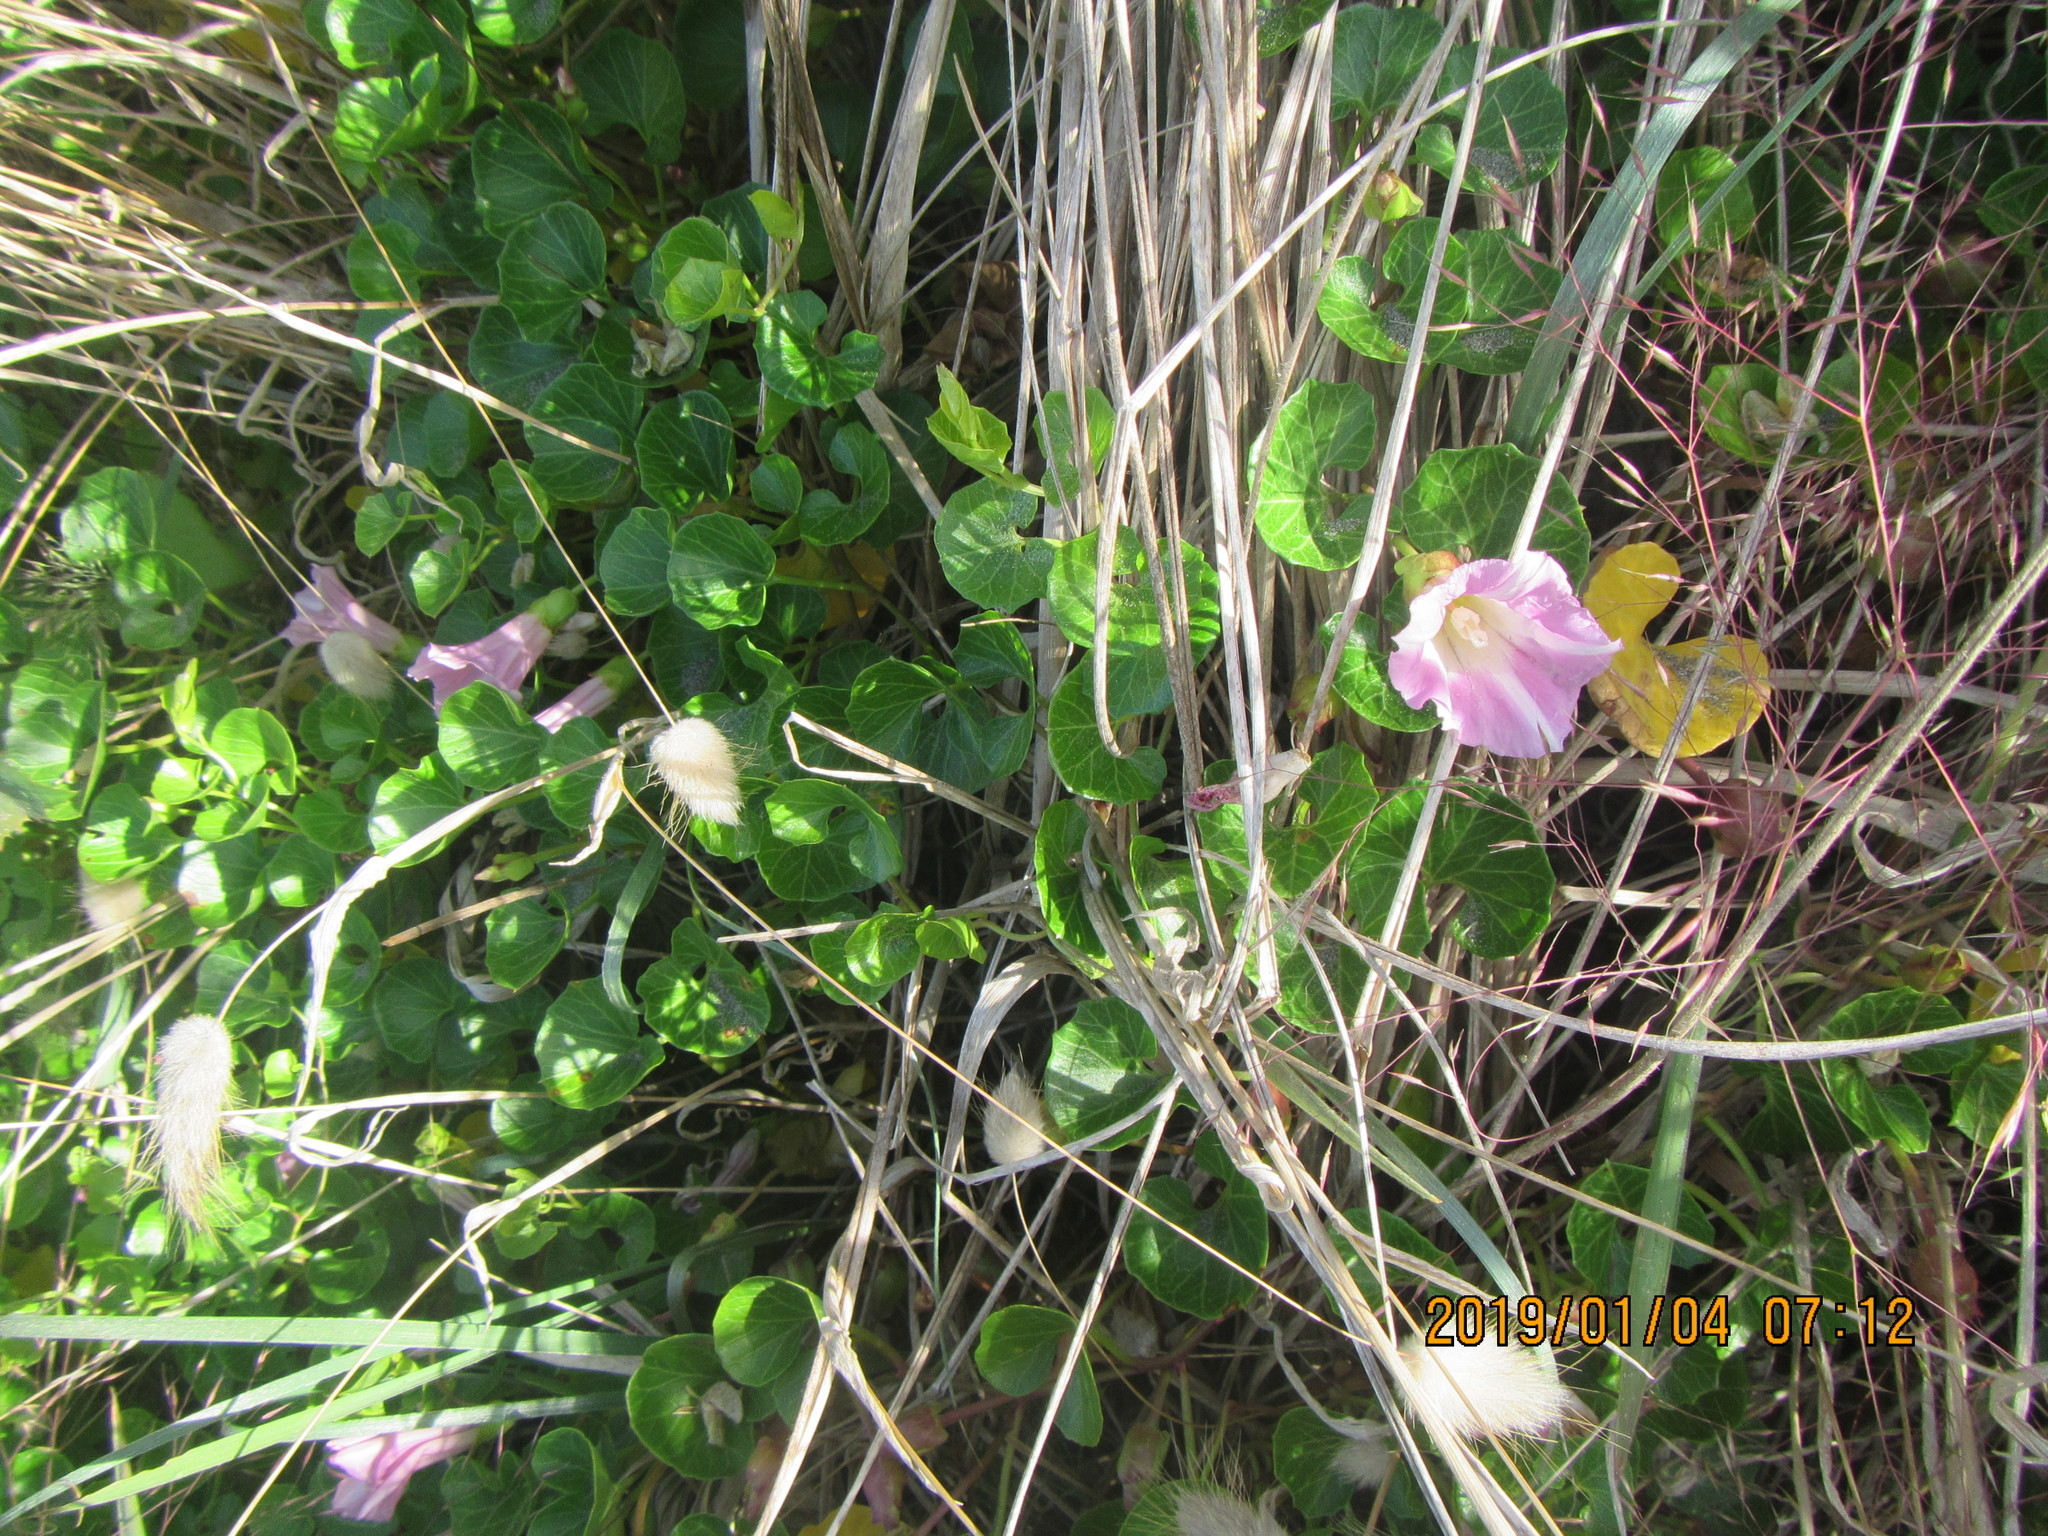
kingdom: Plantae
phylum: Tracheophyta
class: Magnoliopsida
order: Solanales
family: Convolvulaceae
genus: Calystegia
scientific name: Calystegia soldanella
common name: Sea bindweed
